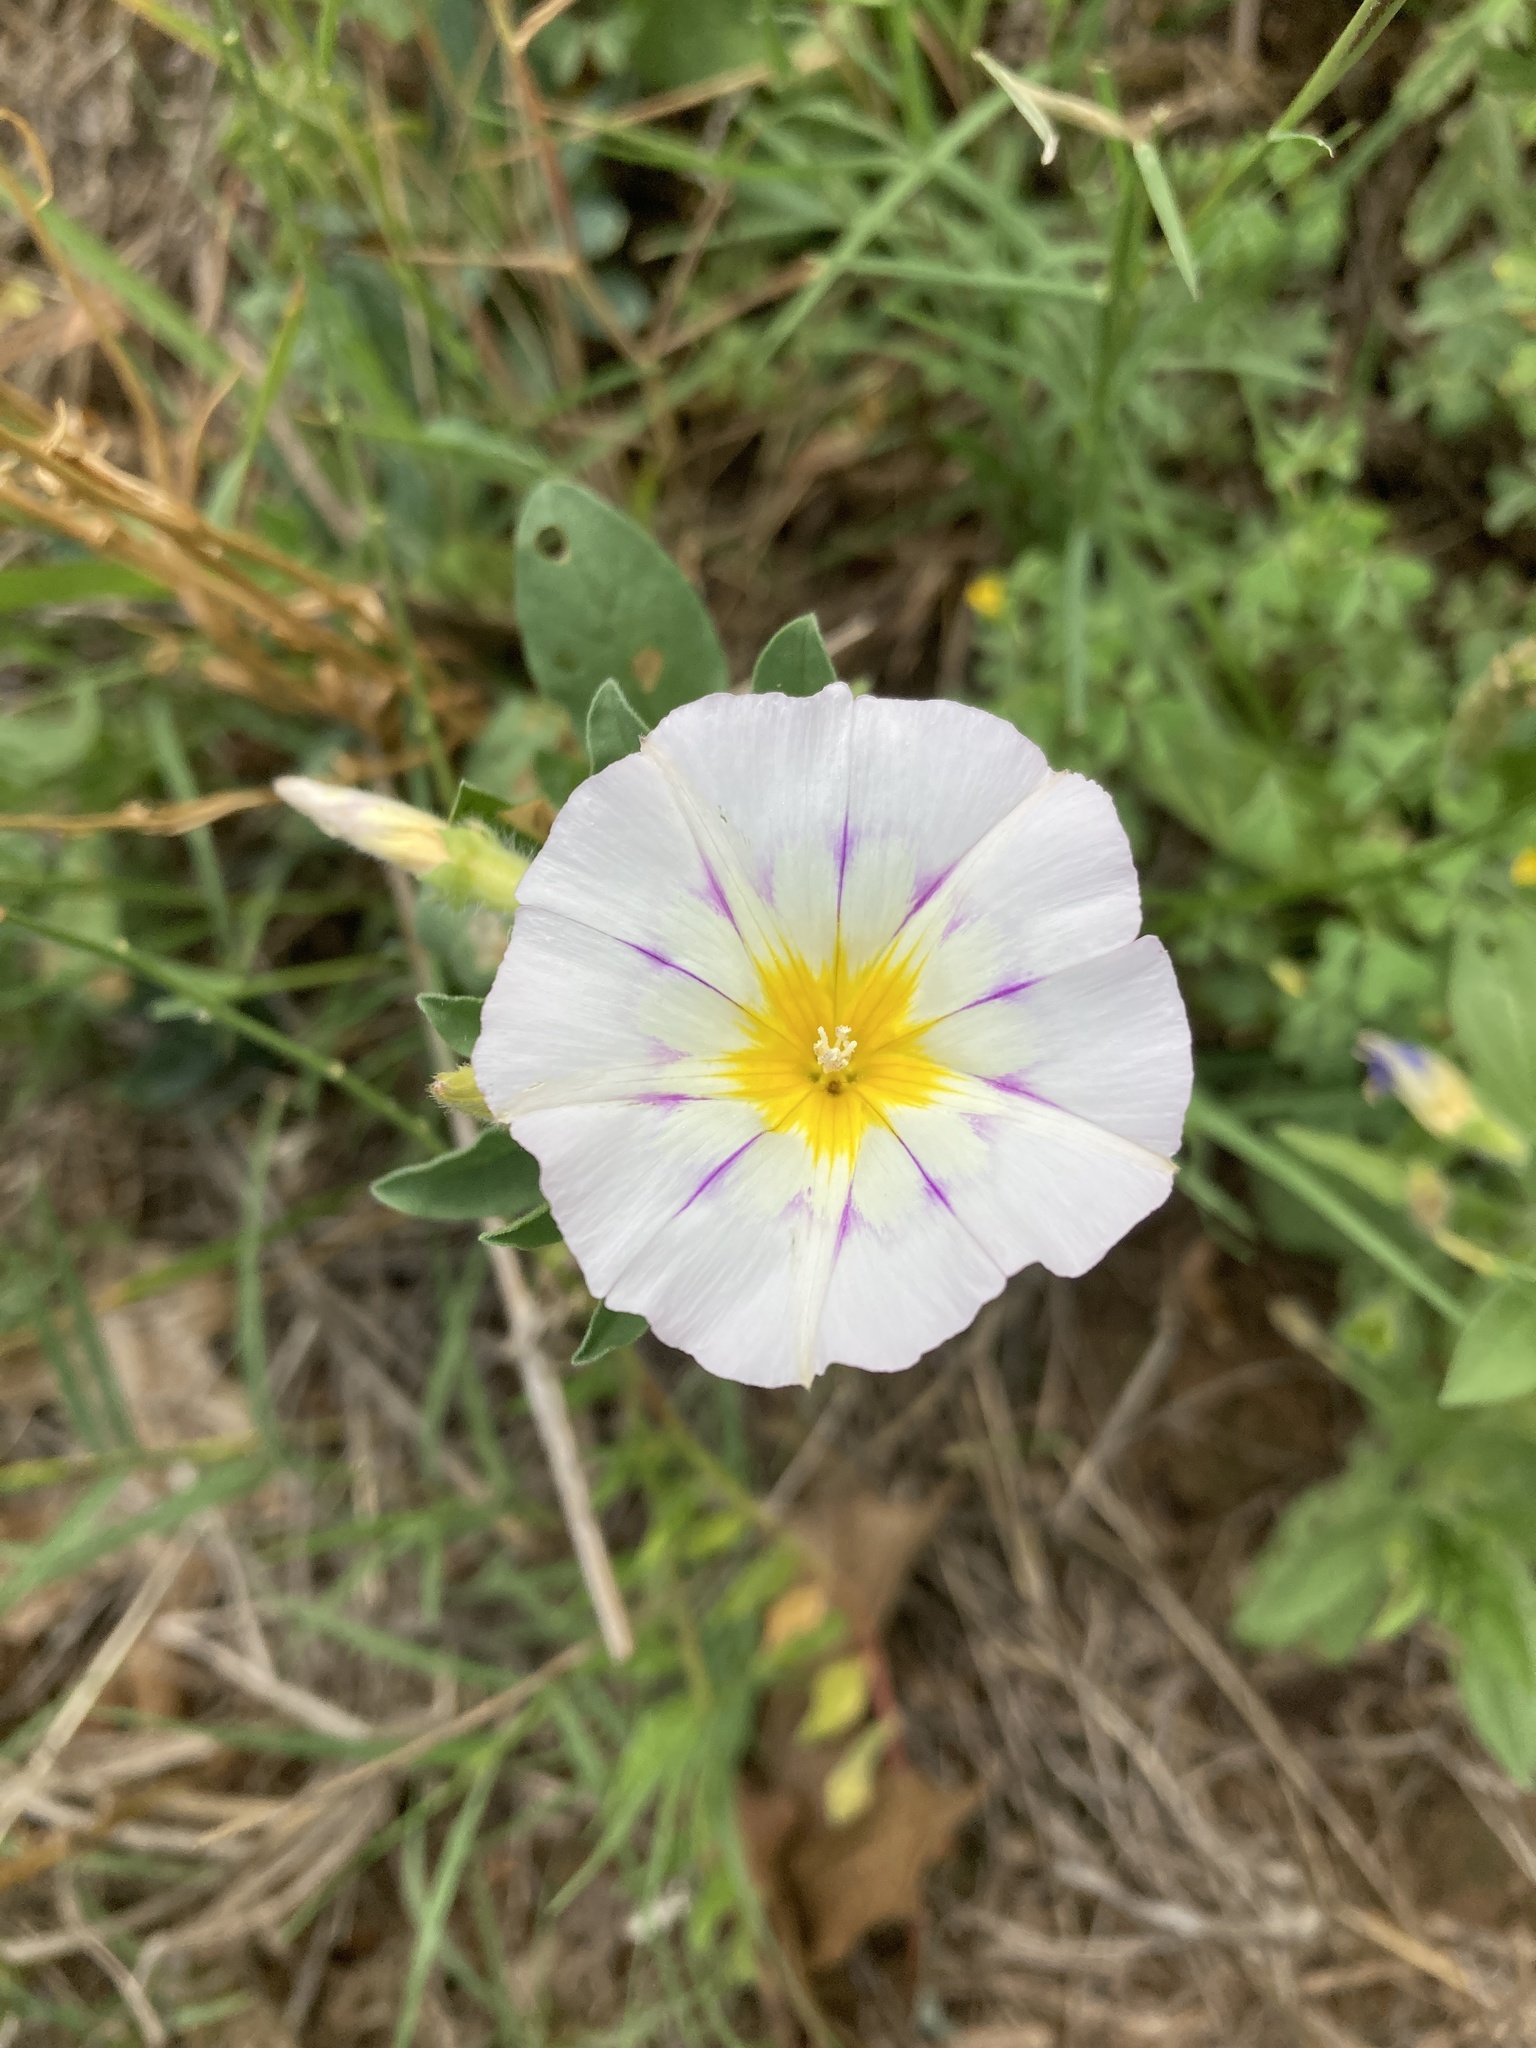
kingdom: Plantae
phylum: Tracheophyta
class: Magnoliopsida
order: Solanales
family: Convolvulaceae
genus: Convolvulus
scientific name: Convolvulus tricolor
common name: Dwarf morning-glory
